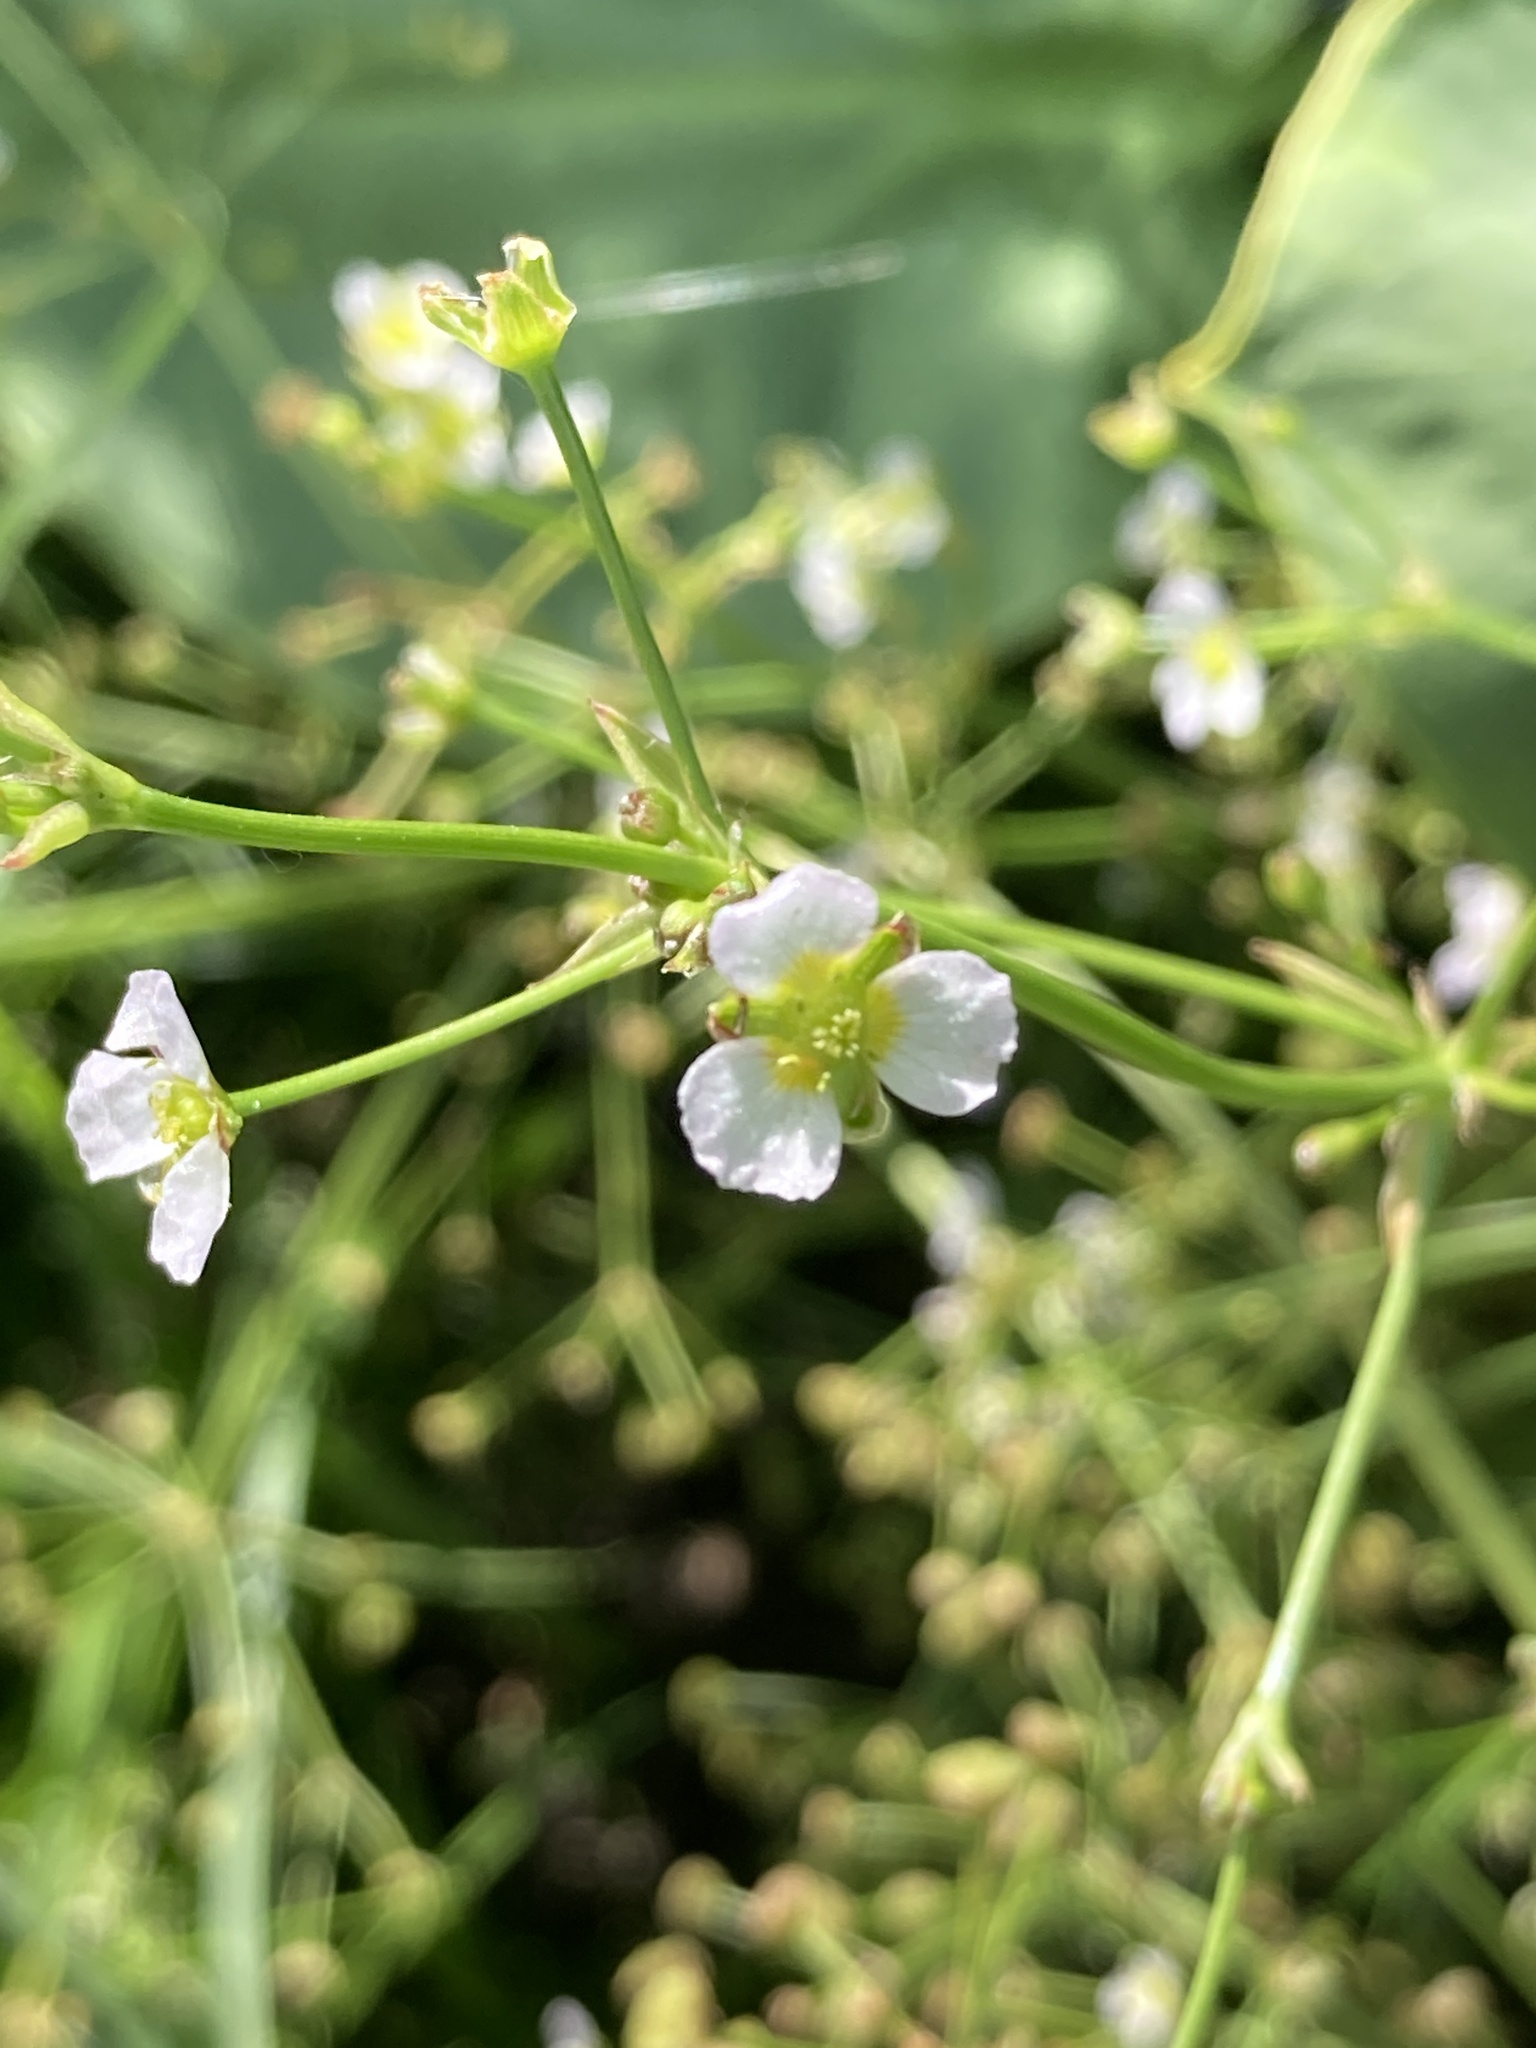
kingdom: Plantae
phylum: Tracheophyta
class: Liliopsida
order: Alismatales
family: Alismataceae
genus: Alisma
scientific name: Alisma plantago-aquatica
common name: Water-plantain
